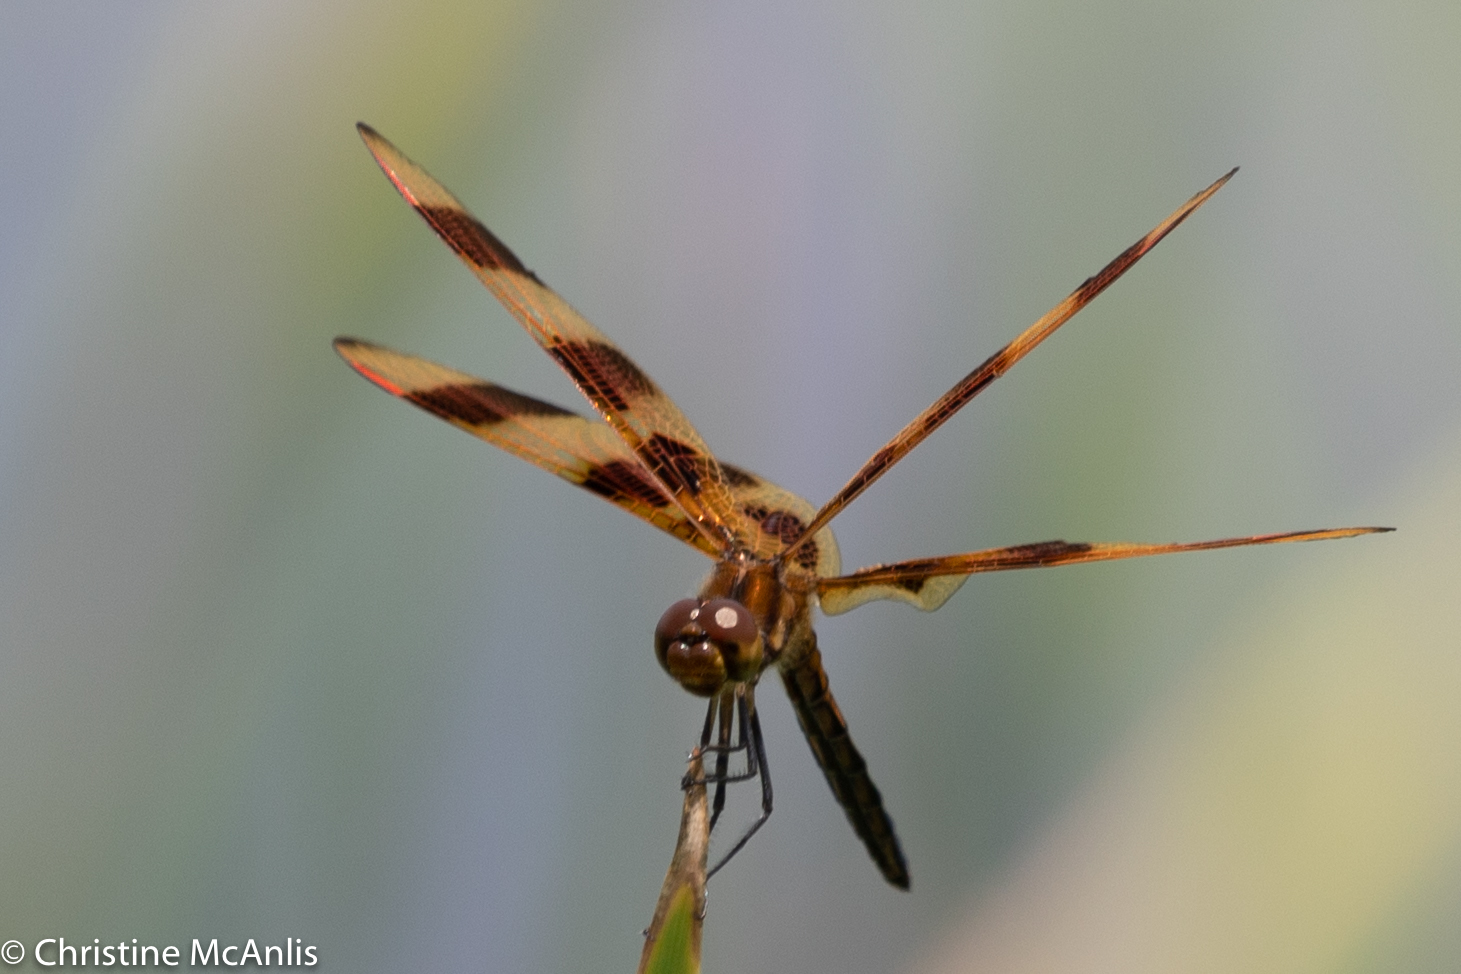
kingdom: Animalia
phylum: Arthropoda
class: Insecta
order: Odonata
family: Libellulidae
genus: Celithemis
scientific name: Celithemis eponina
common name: Halloween pennant
